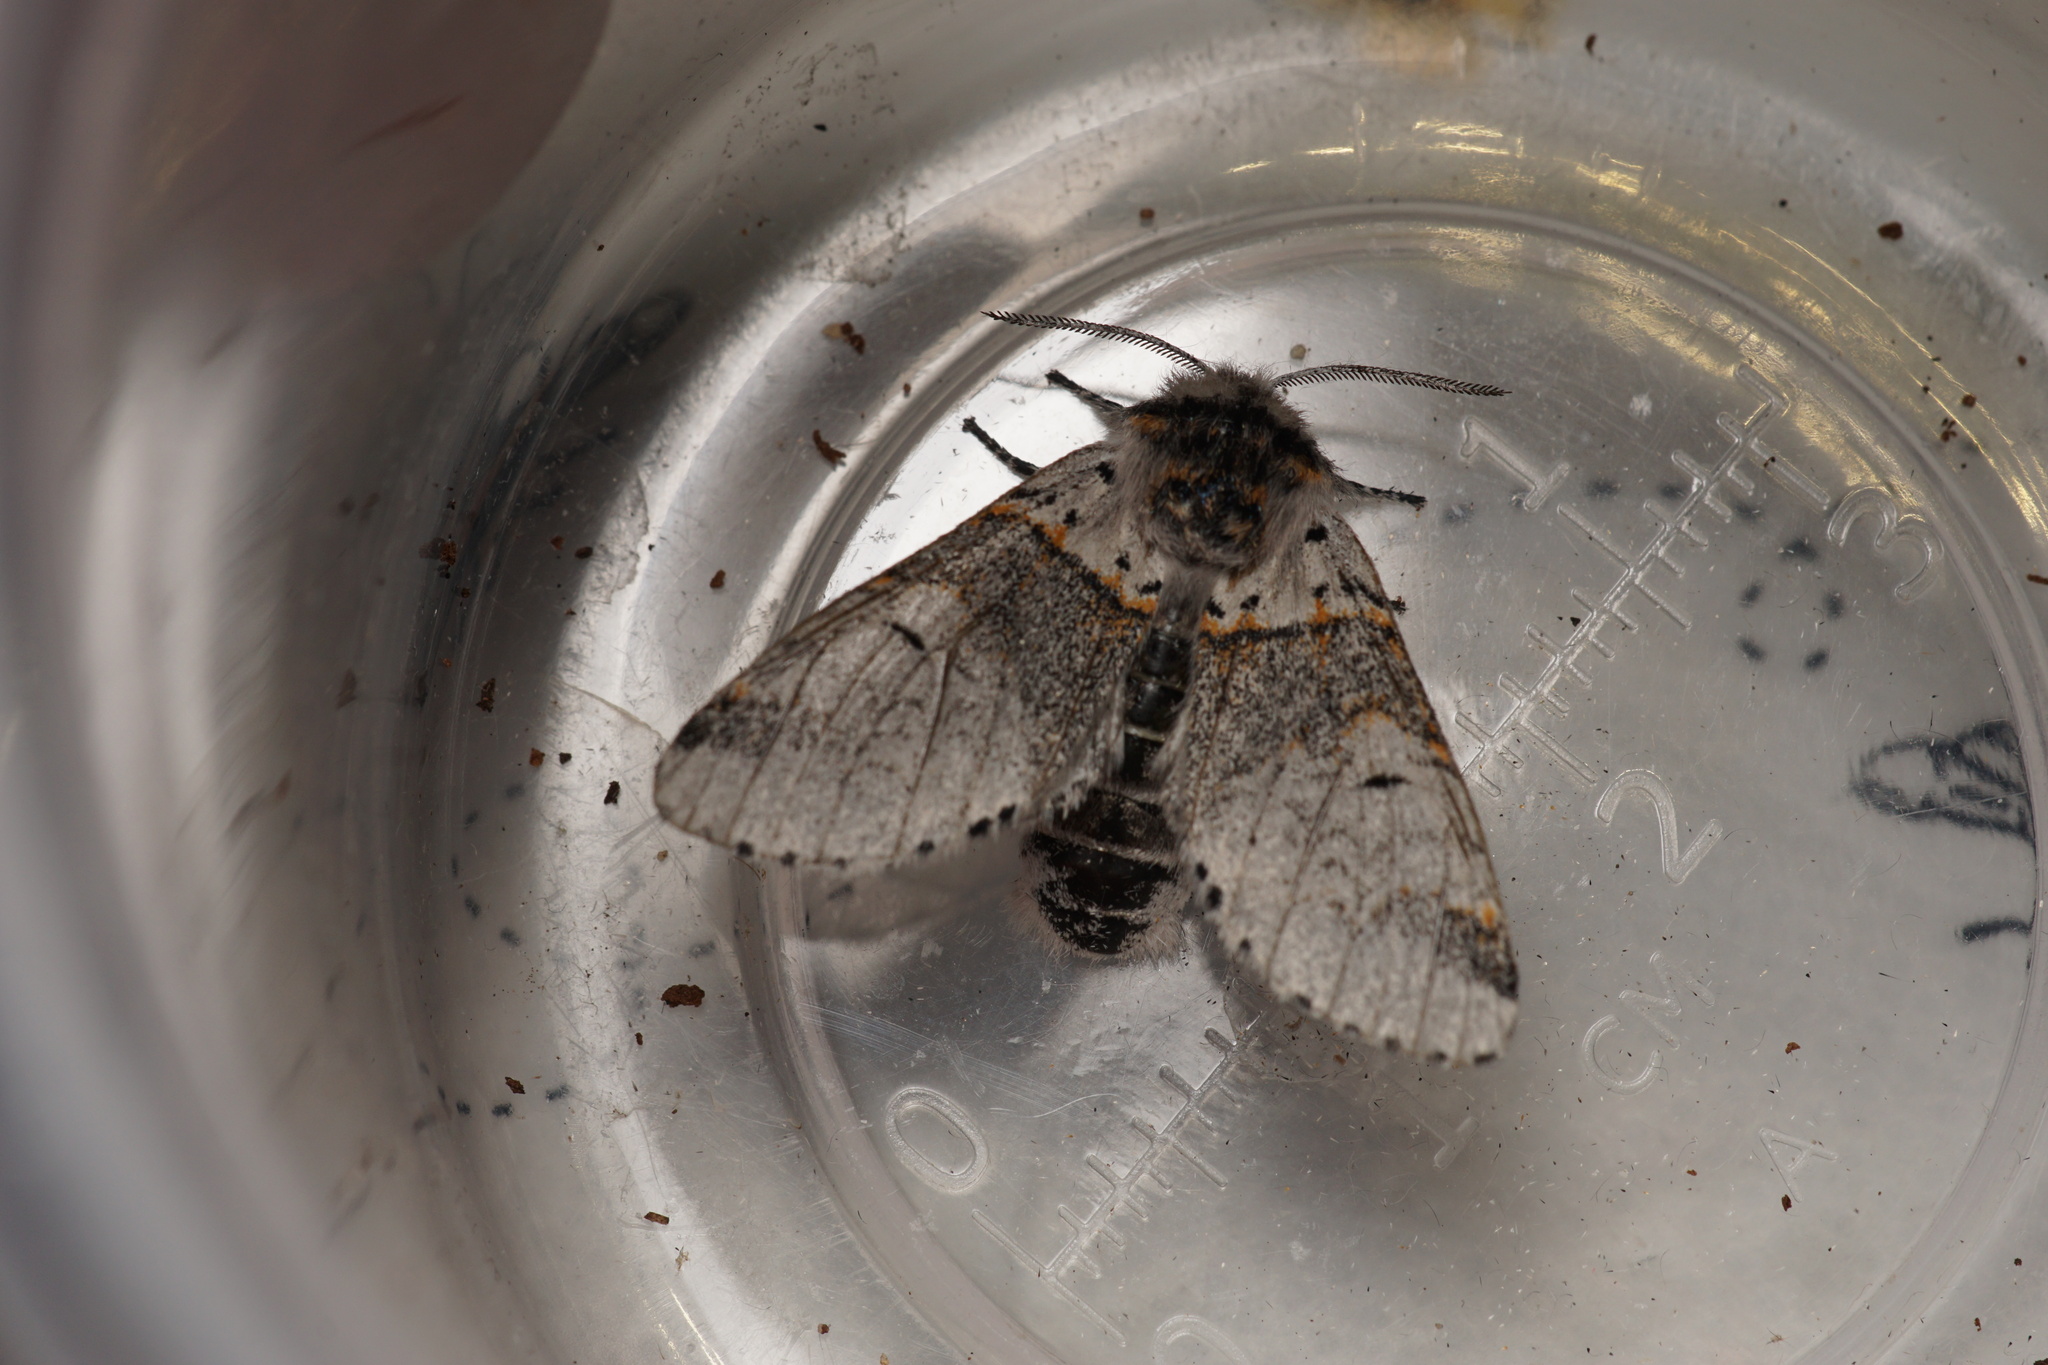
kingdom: Animalia
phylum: Arthropoda
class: Insecta
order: Lepidoptera
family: Notodontidae
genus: Furcula
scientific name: Furcula furcula
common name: Sallow kitten
